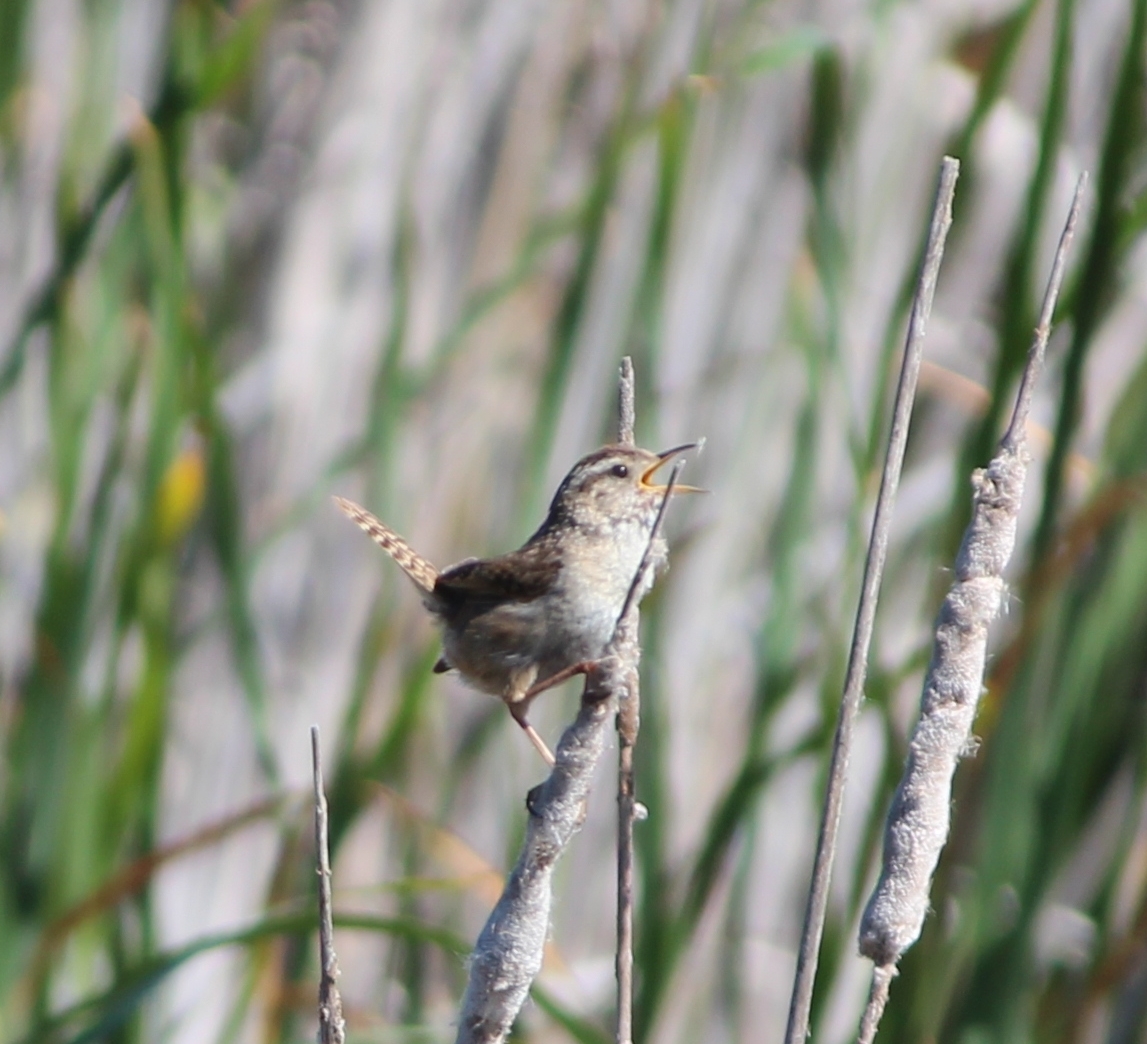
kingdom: Animalia
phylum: Chordata
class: Aves
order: Passeriformes
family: Troglodytidae
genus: Cistothorus
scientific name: Cistothorus palustris
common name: Marsh wren
